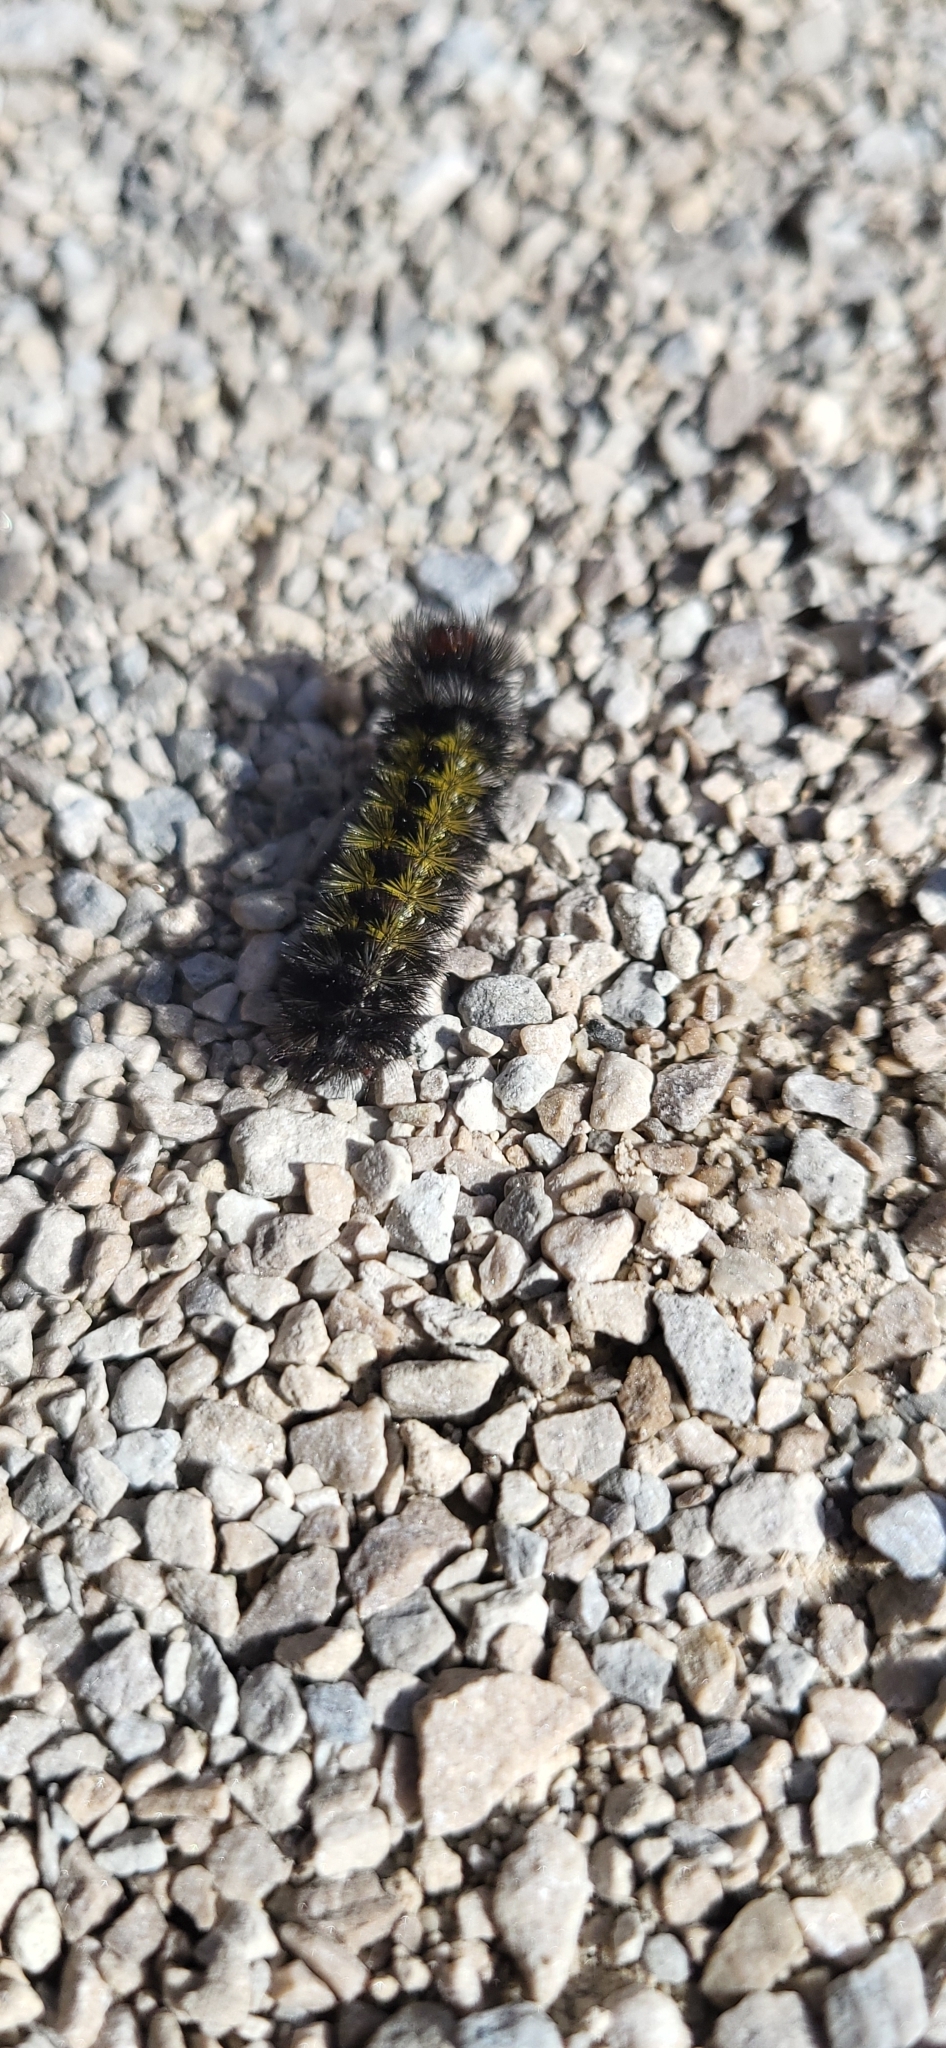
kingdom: Animalia
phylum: Arthropoda
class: Insecta
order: Lepidoptera
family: Erebidae
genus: Ctenucha
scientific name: Ctenucha virginica
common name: Virginia ctenucha moth
